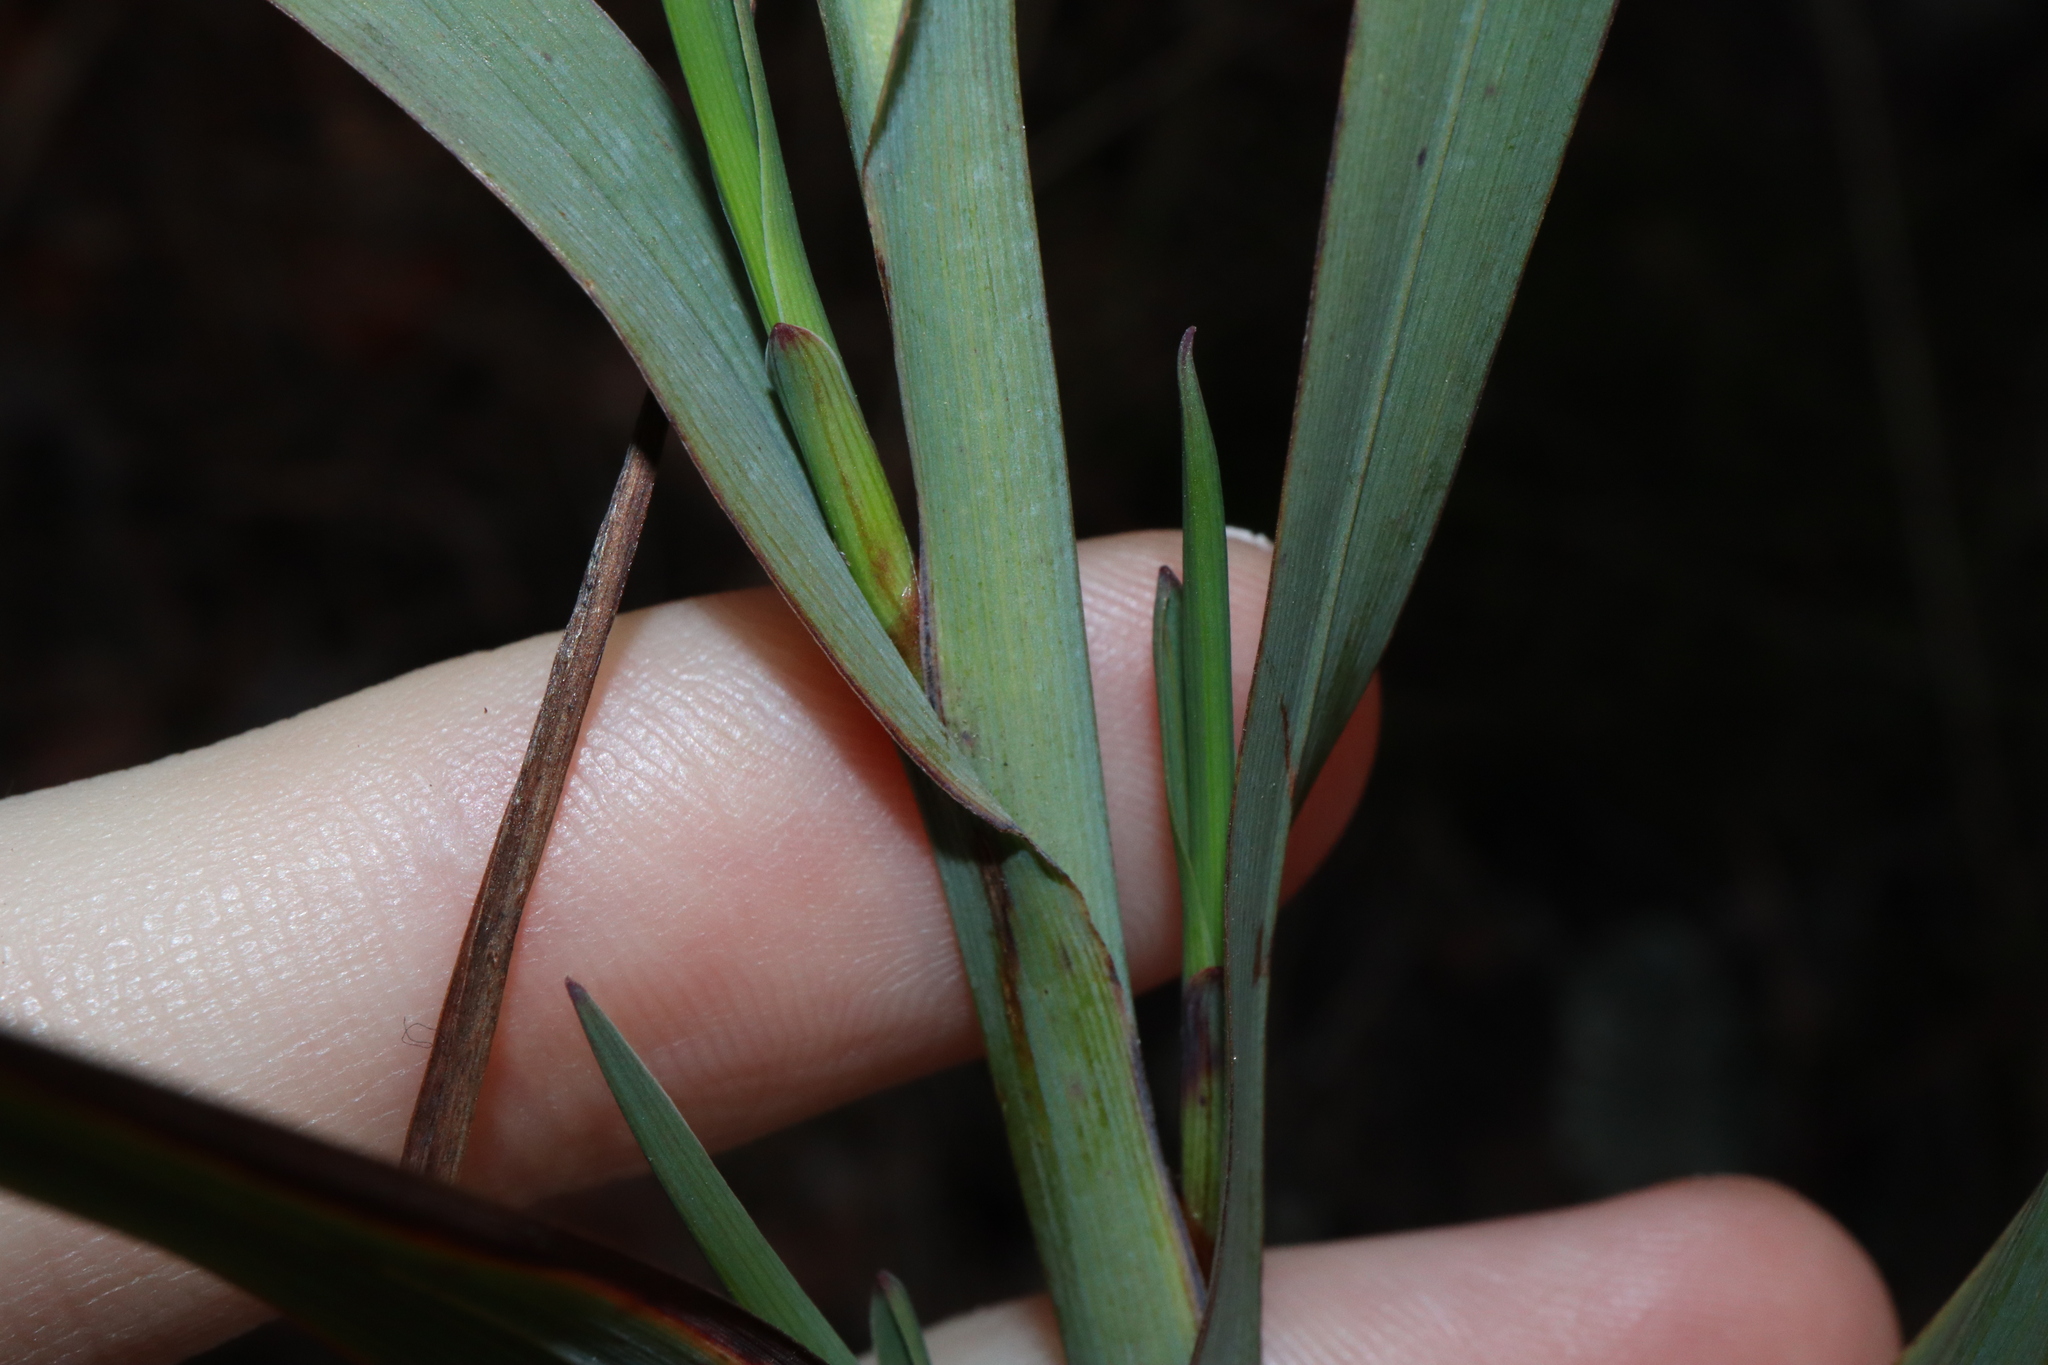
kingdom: Plantae
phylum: Tracheophyta
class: Liliopsida
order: Asparagales
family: Asphodelaceae
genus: Stypandra
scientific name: Stypandra glauca
